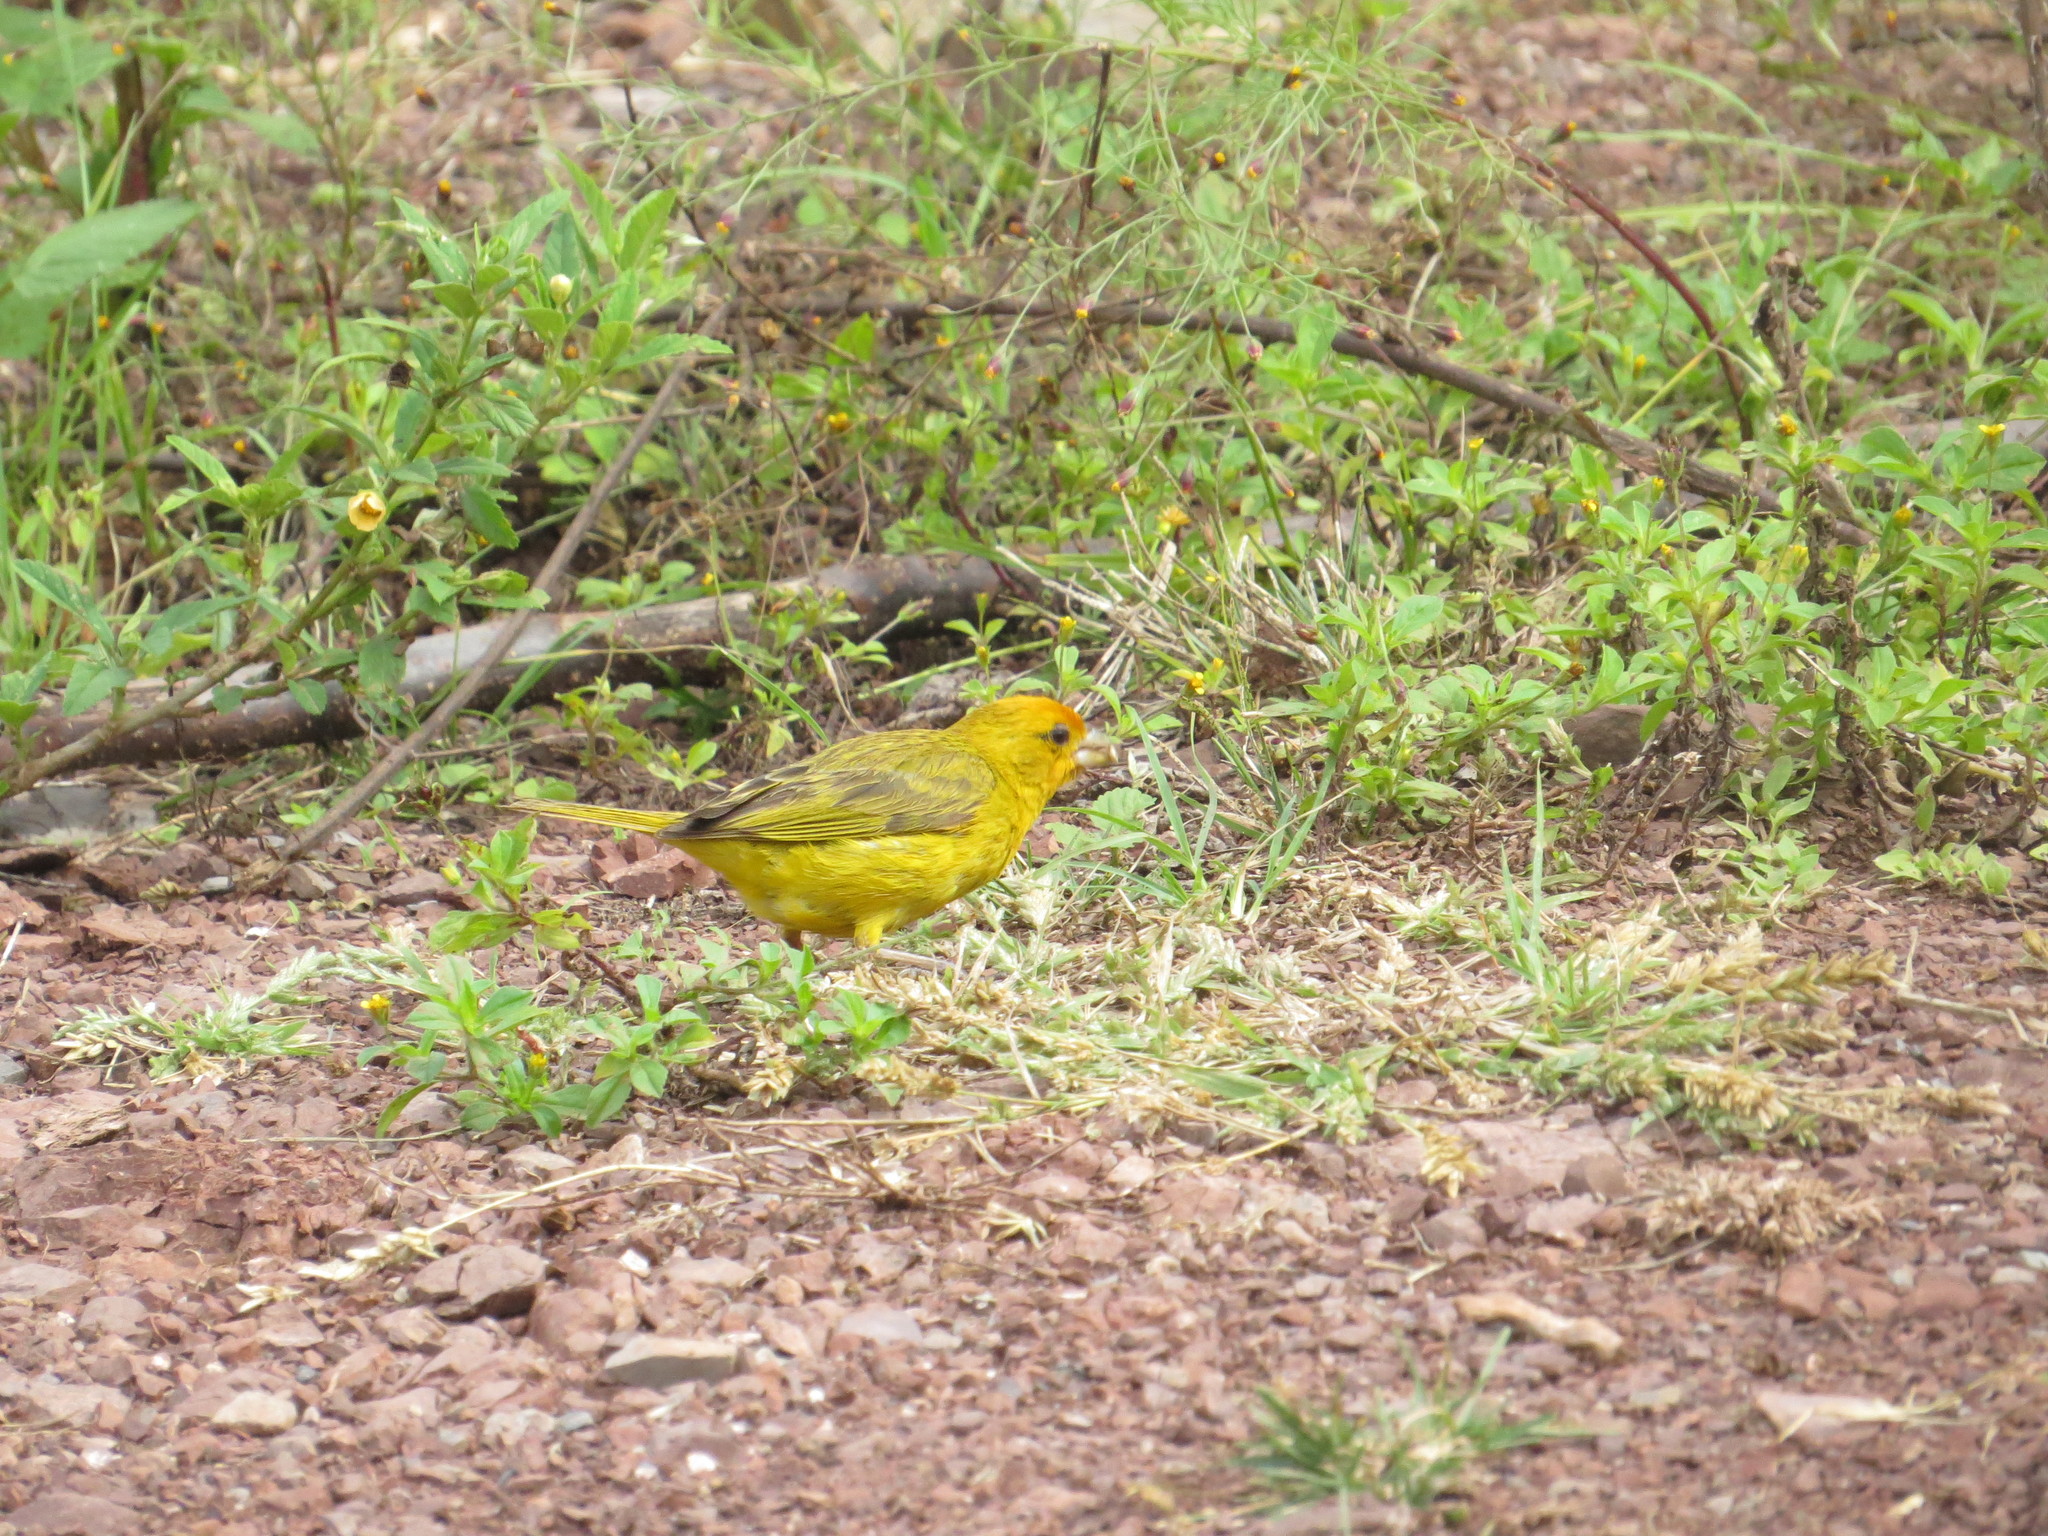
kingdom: Animalia
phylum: Chordata
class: Aves
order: Passeriformes
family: Thraupidae
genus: Sicalis
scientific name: Sicalis flaveola
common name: Saffron finch
